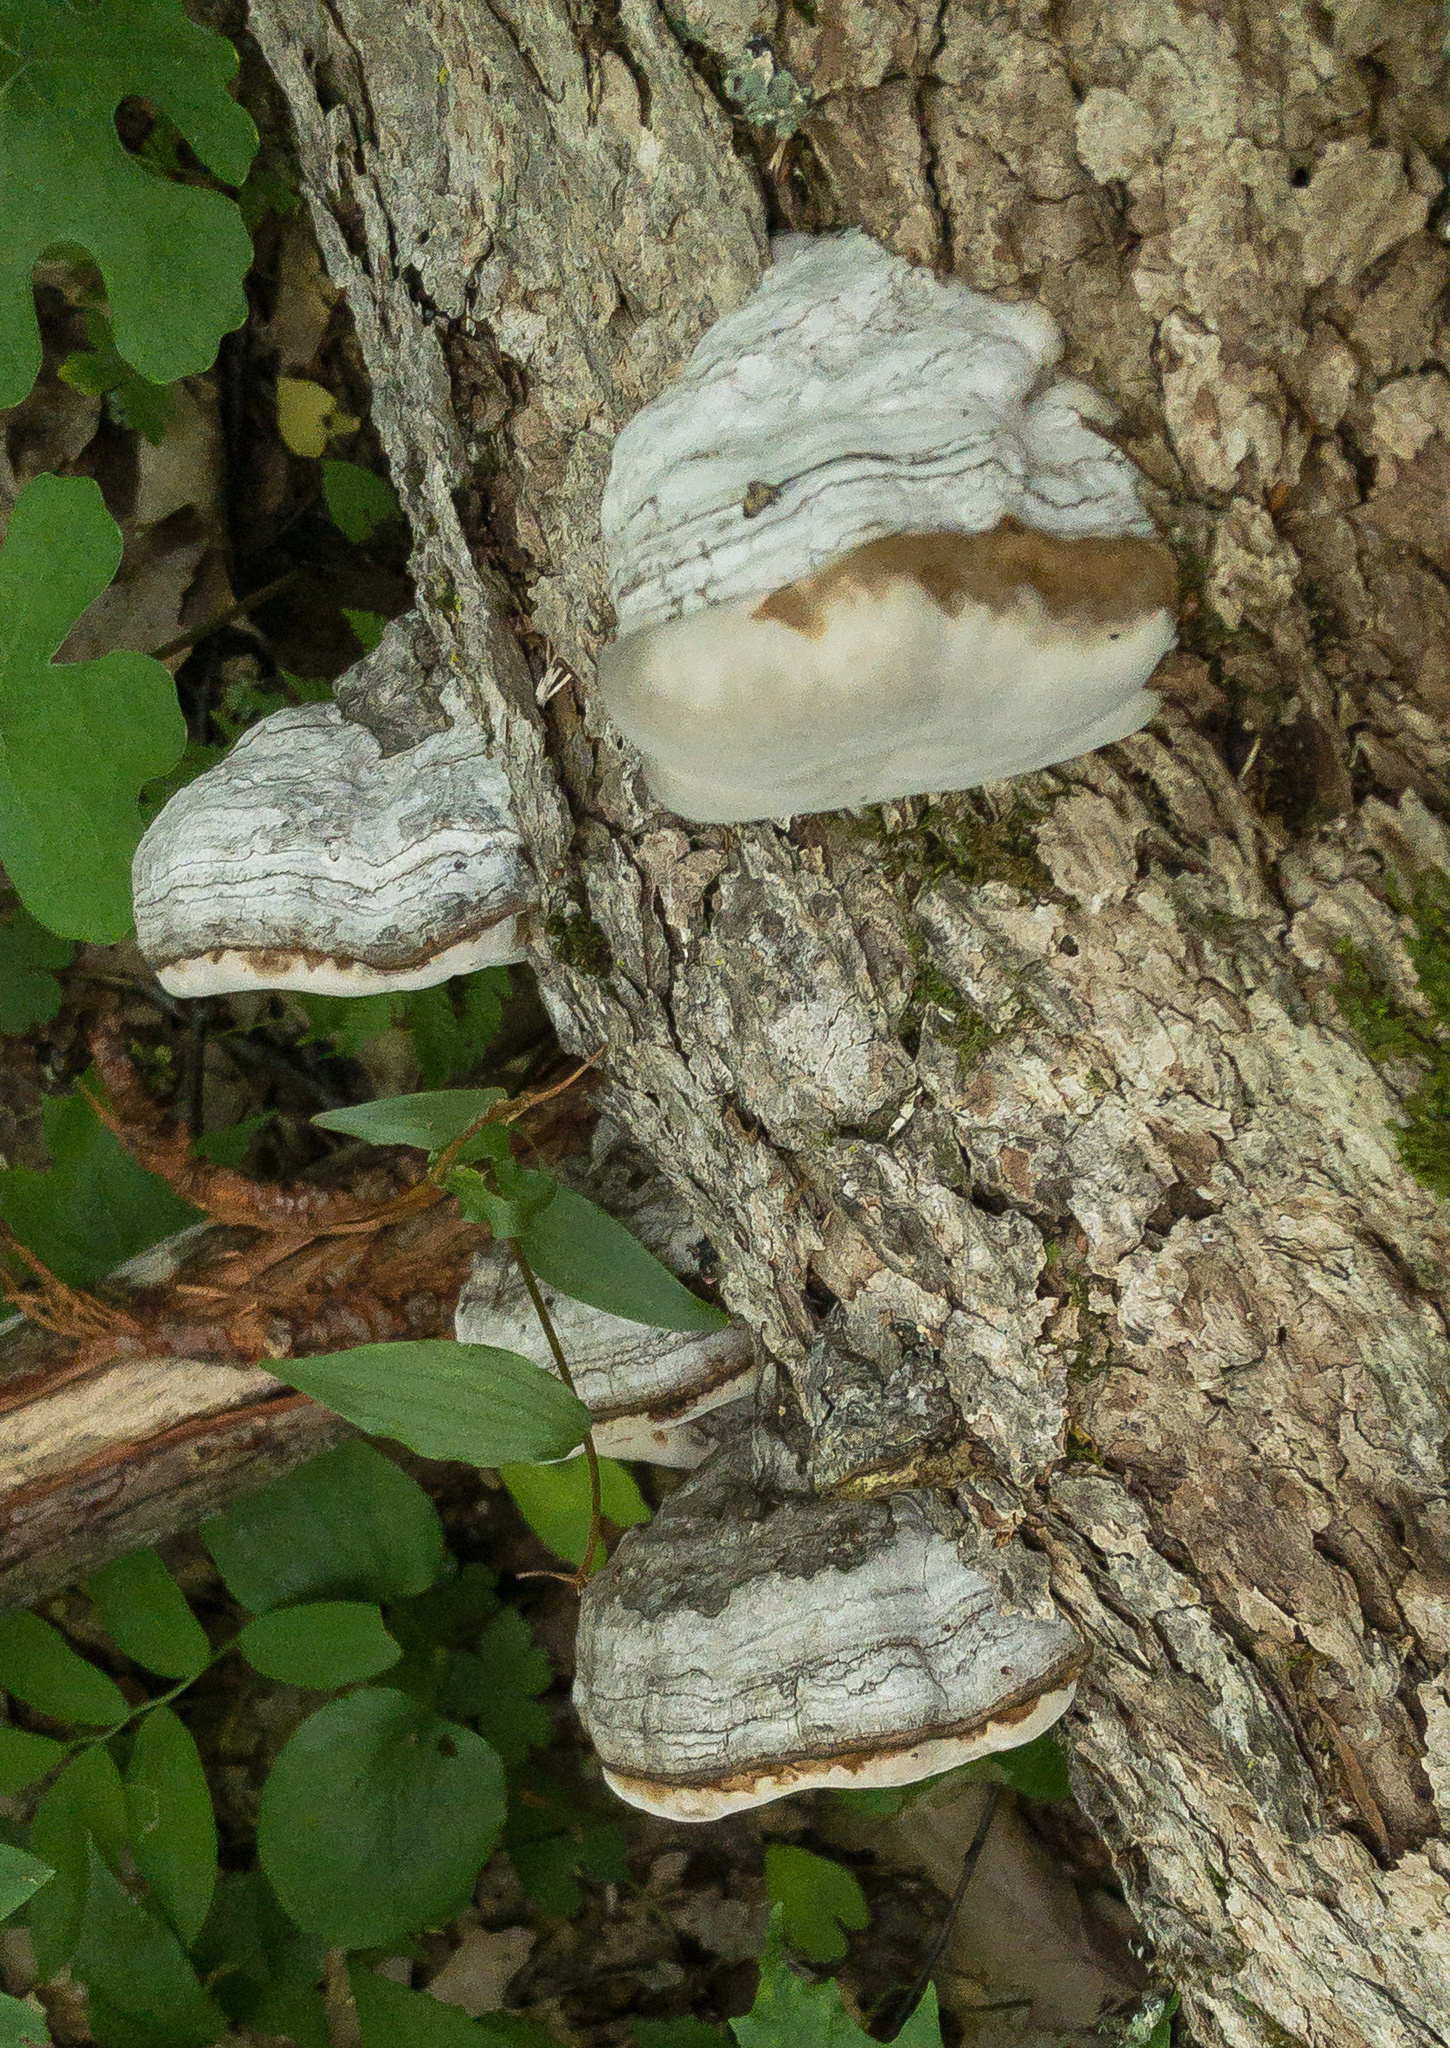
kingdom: Fungi
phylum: Basidiomycota
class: Agaricomycetes
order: Polyporales
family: Polyporaceae
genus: Fomes
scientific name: Fomes fomentarius
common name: Hoof fungus
